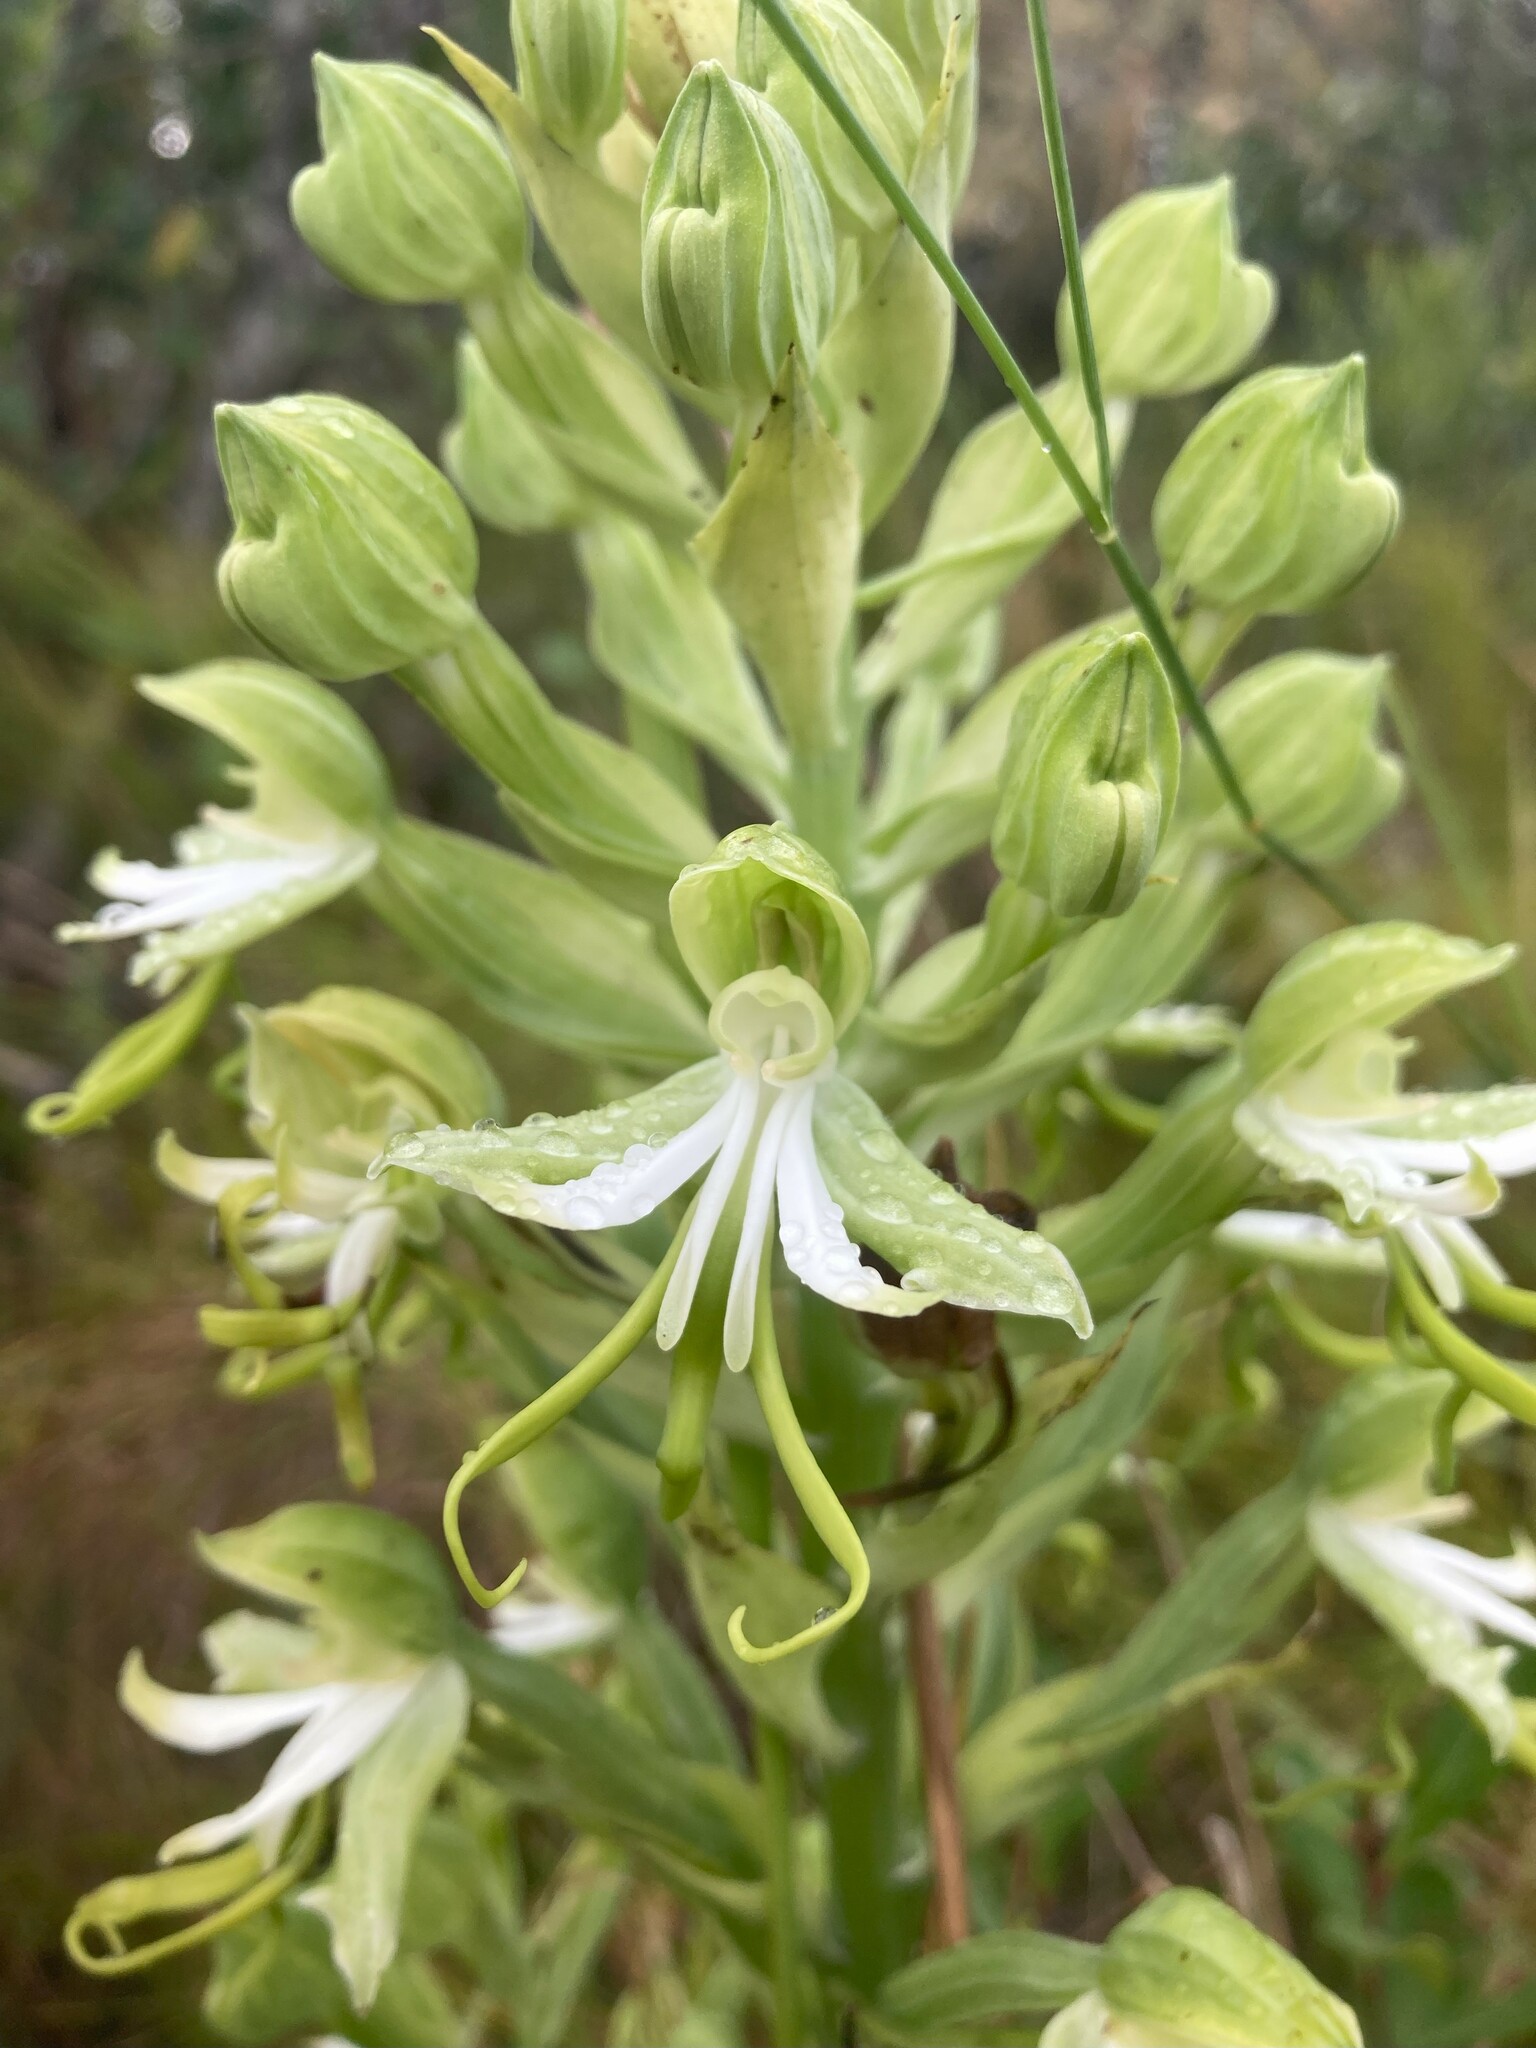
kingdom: Plantae
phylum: Tracheophyta
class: Liliopsida
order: Asparagales
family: Orchidaceae
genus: Bonatea
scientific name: Bonatea speciosa
